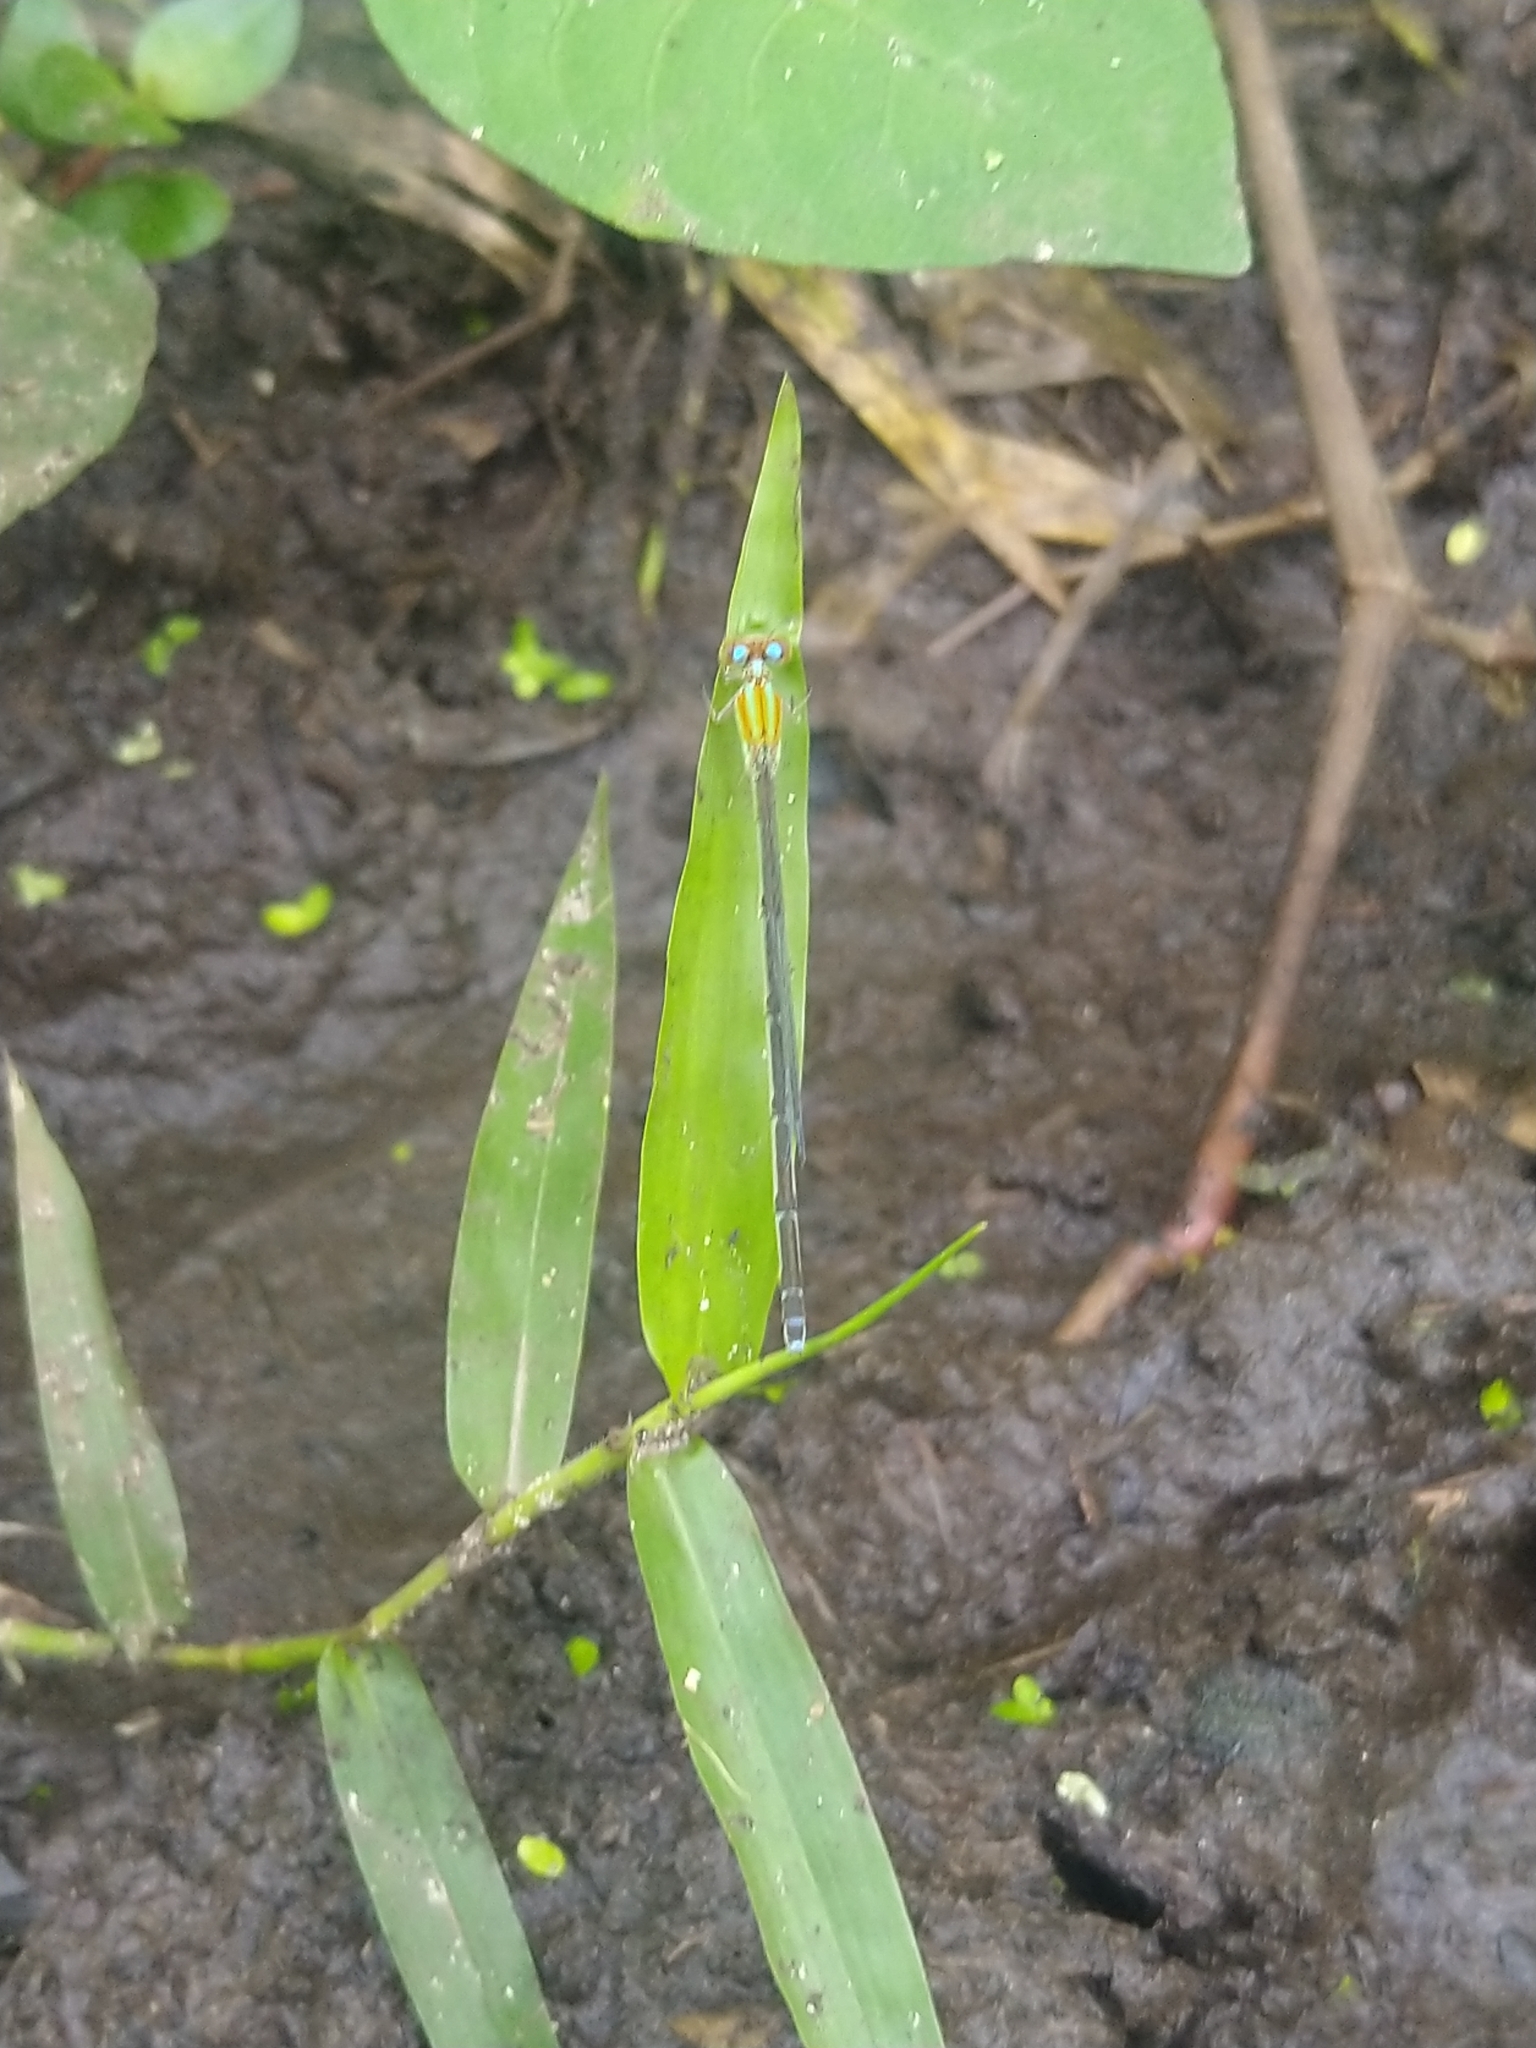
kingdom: Animalia
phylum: Arthropoda
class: Insecta
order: Odonata
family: Coenagrionidae
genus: Pseudagrion
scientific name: Pseudagrion microcephalum
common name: Blue riverdamsel
